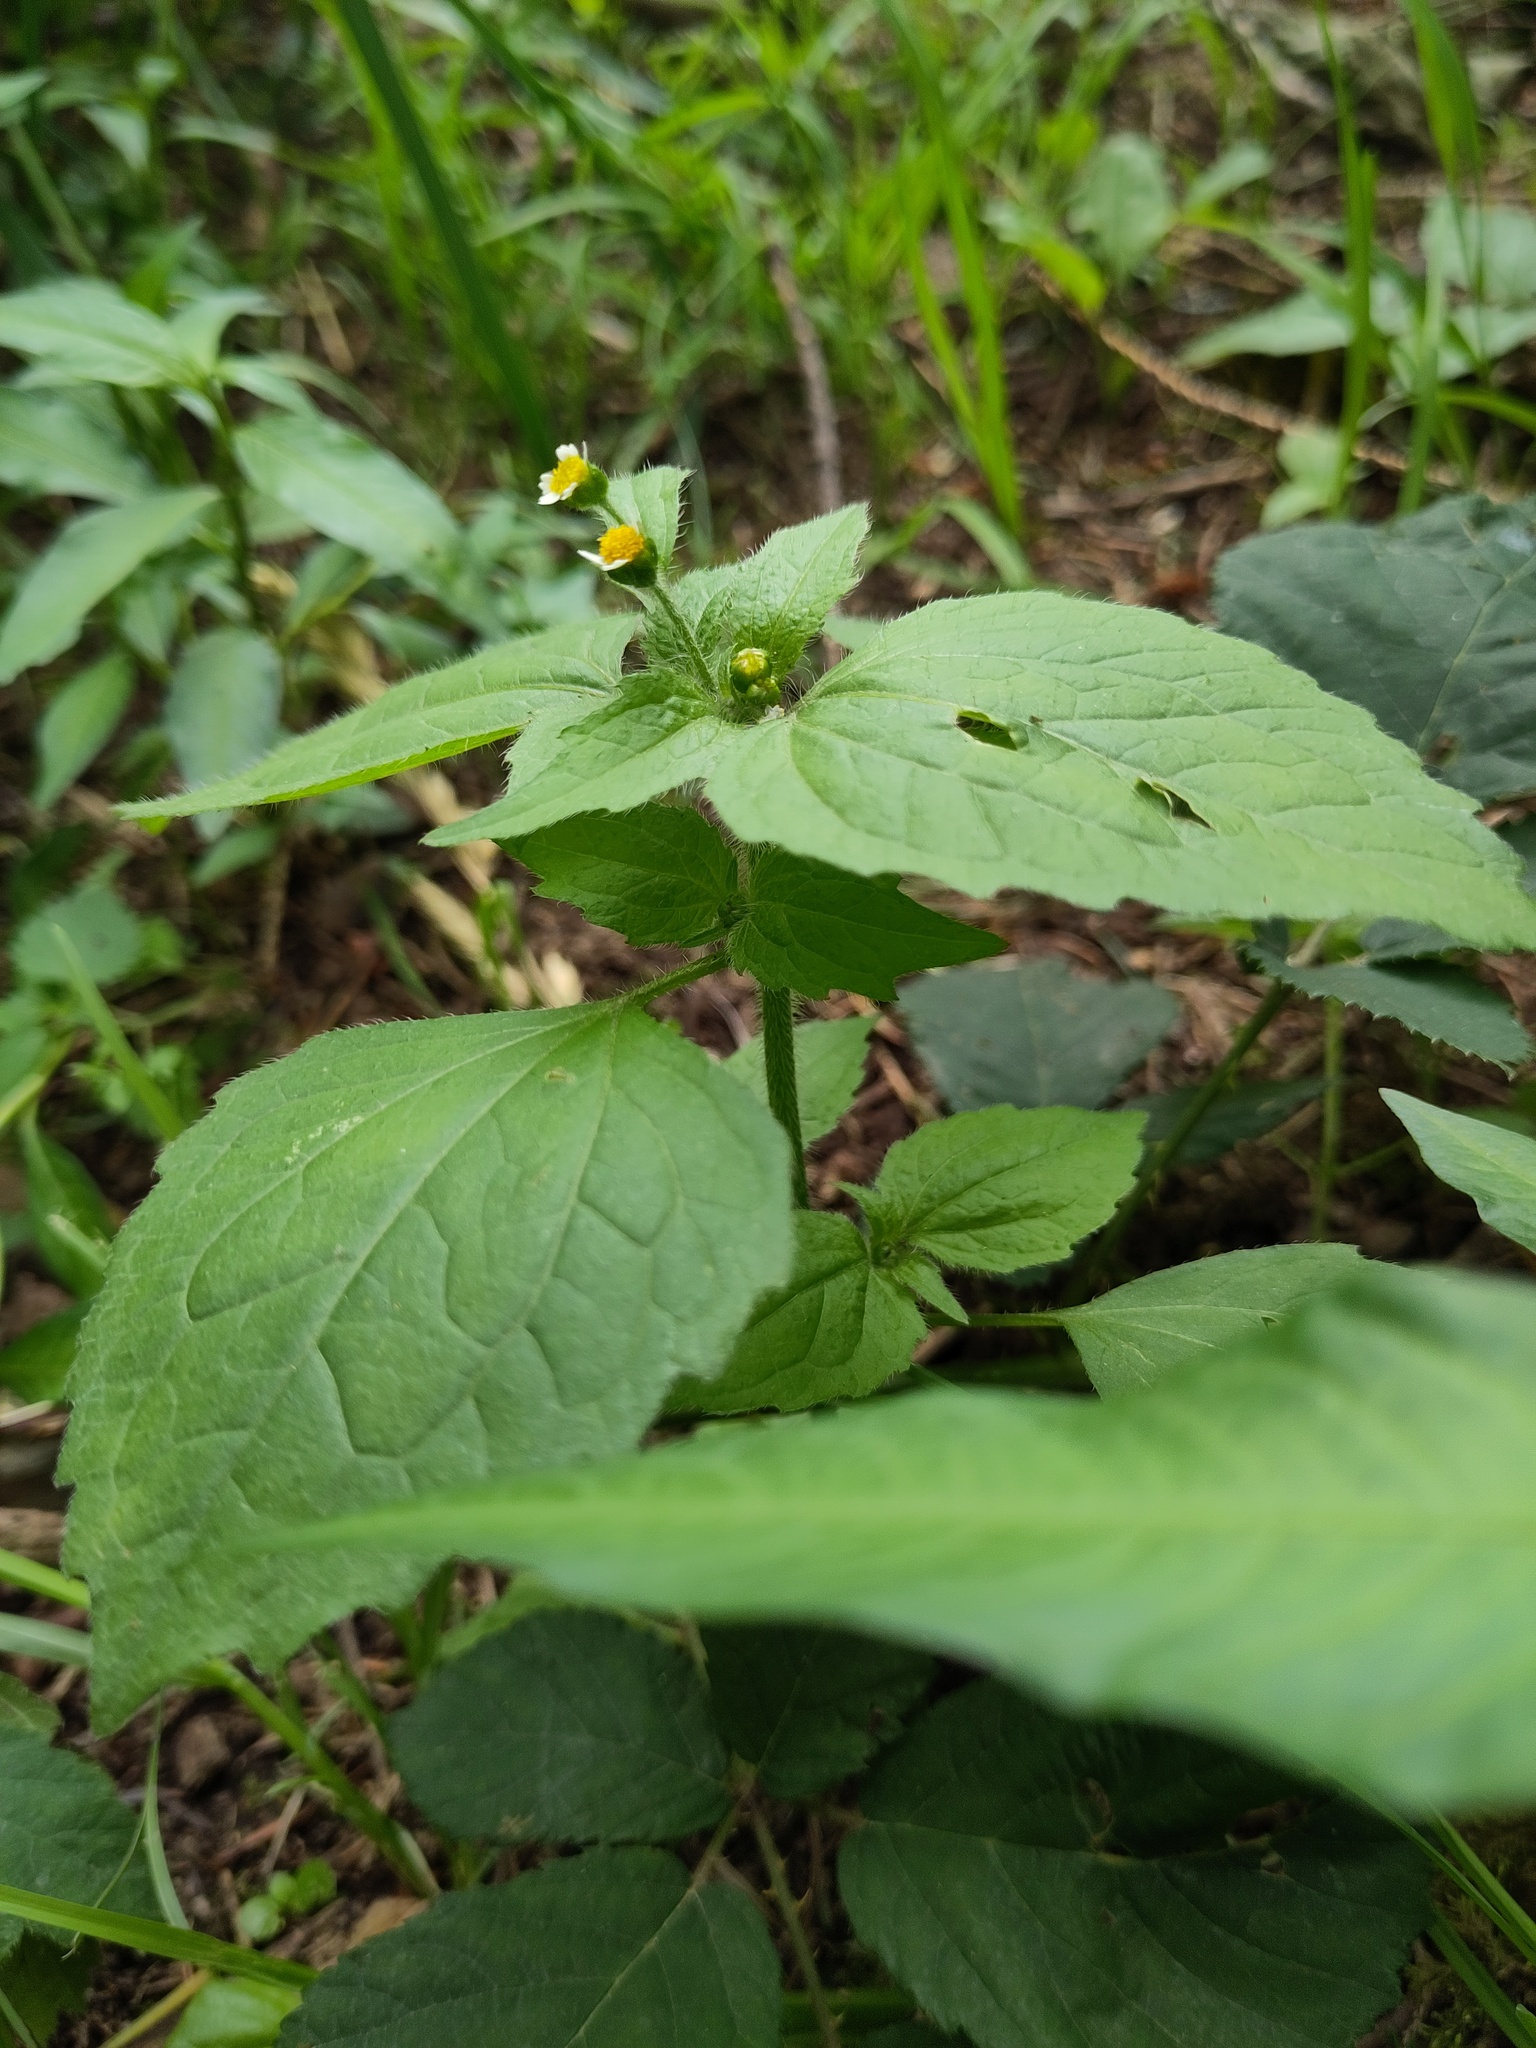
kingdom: Plantae
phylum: Tracheophyta
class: Magnoliopsida
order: Asterales
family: Asteraceae
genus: Galinsoga
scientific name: Galinsoga quadriradiata
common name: Shaggy soldier
